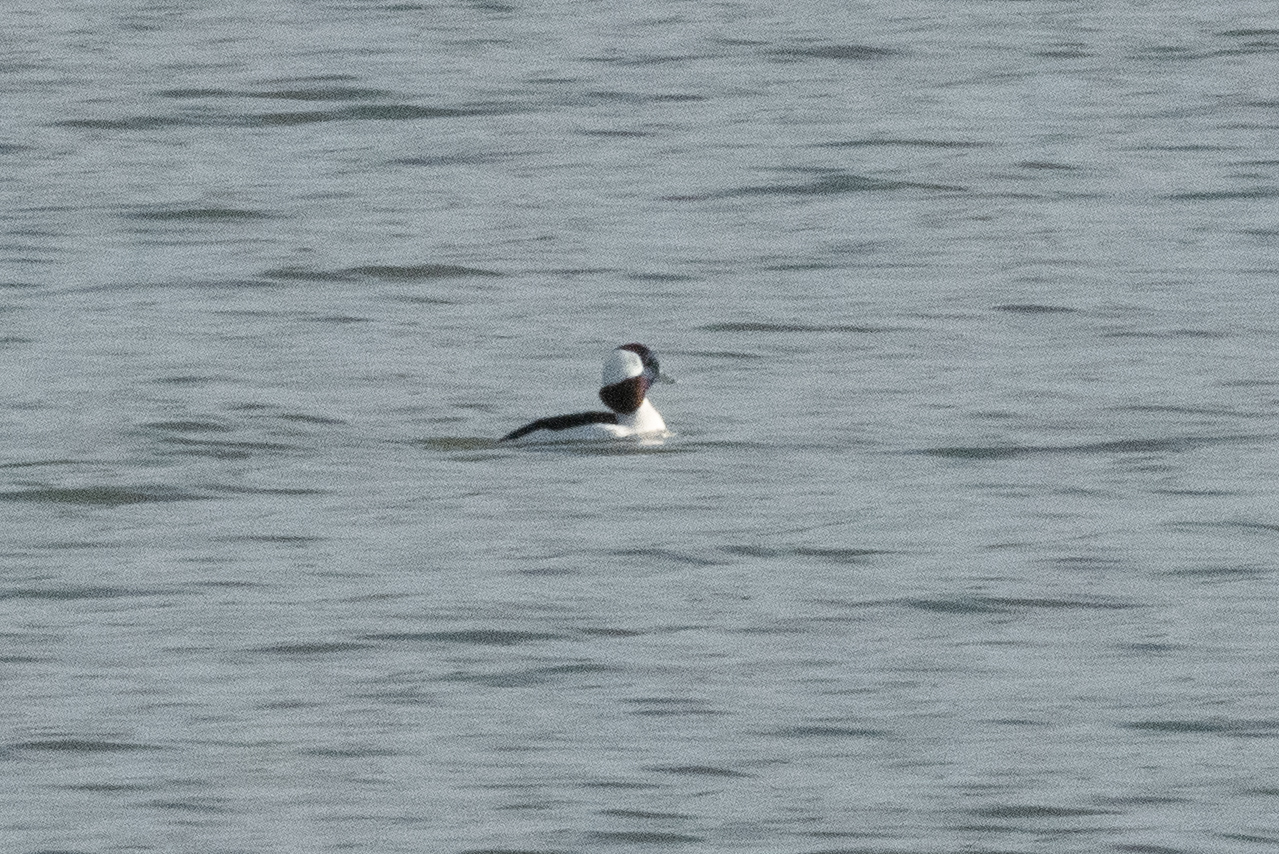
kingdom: Animalia
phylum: Chordata
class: Aves
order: Anseriformes
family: Anatidae
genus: Bucephala
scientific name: Bucephala albeola
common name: Bufflehead
